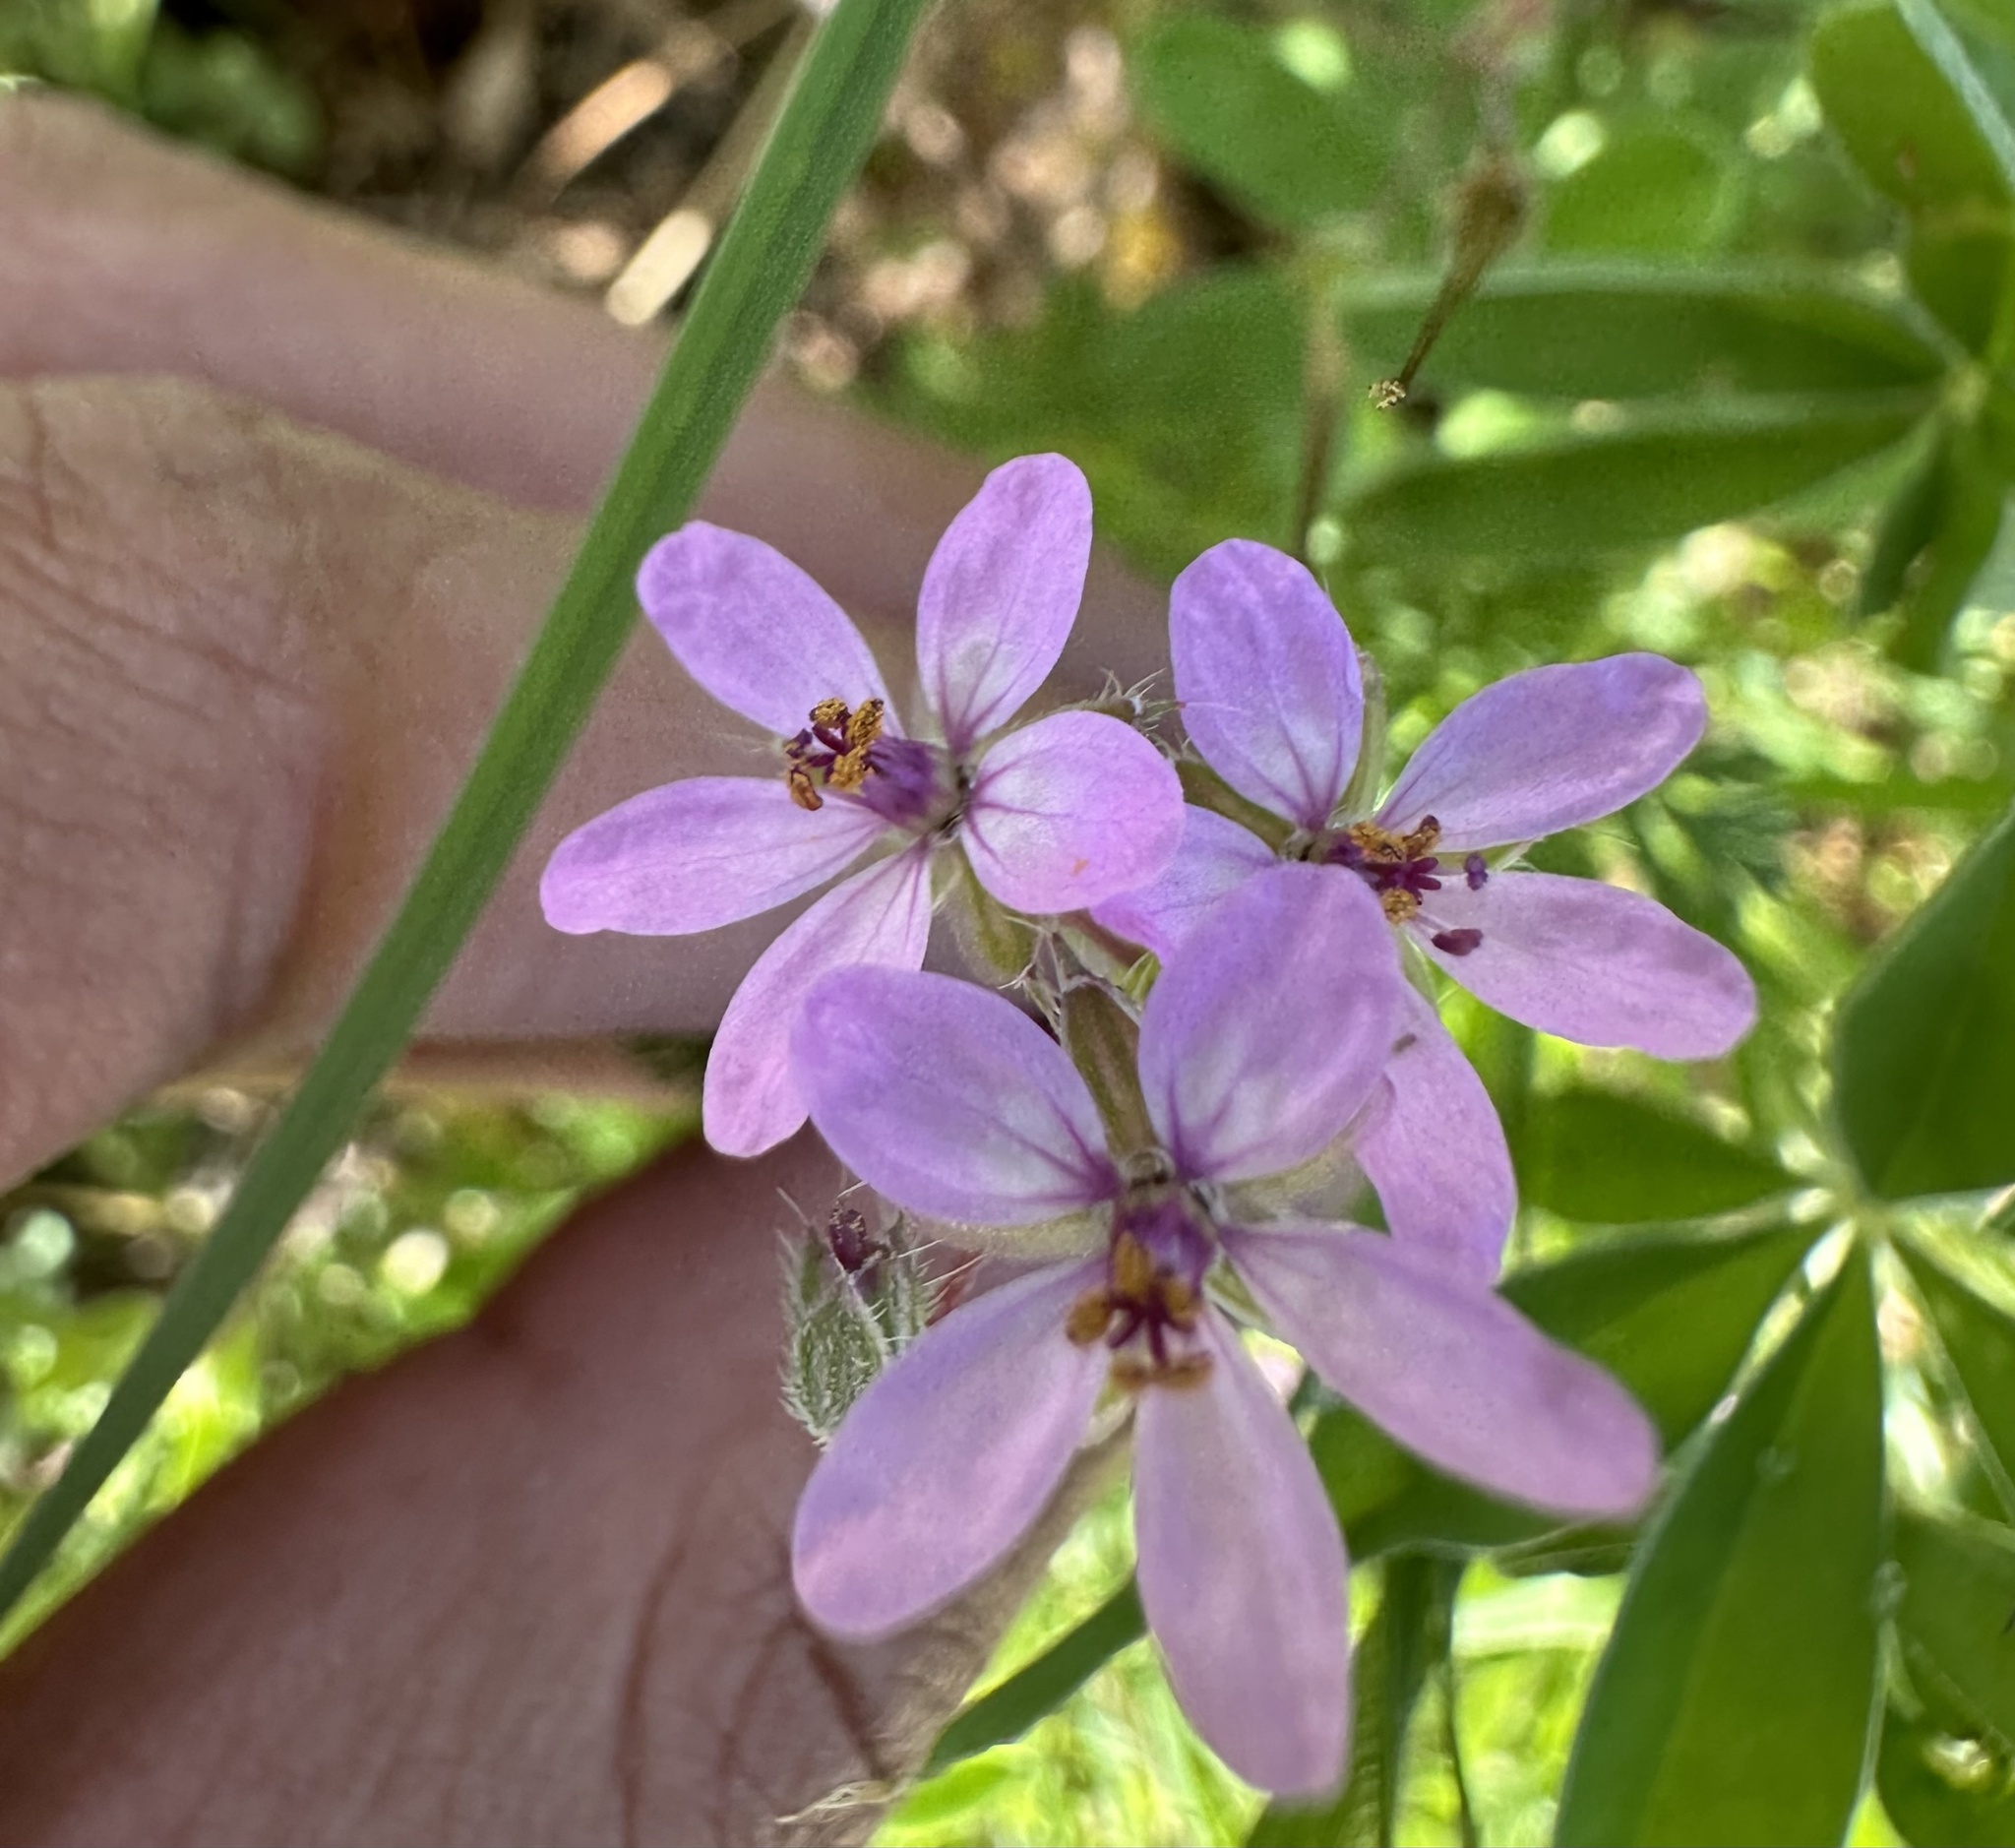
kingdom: Plantae
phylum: Tracheophyta
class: Magnoliopsida
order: Geraniales
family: Geraniaceae
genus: Erodium
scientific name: Erodium cicutarium
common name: Common stork's-bill
